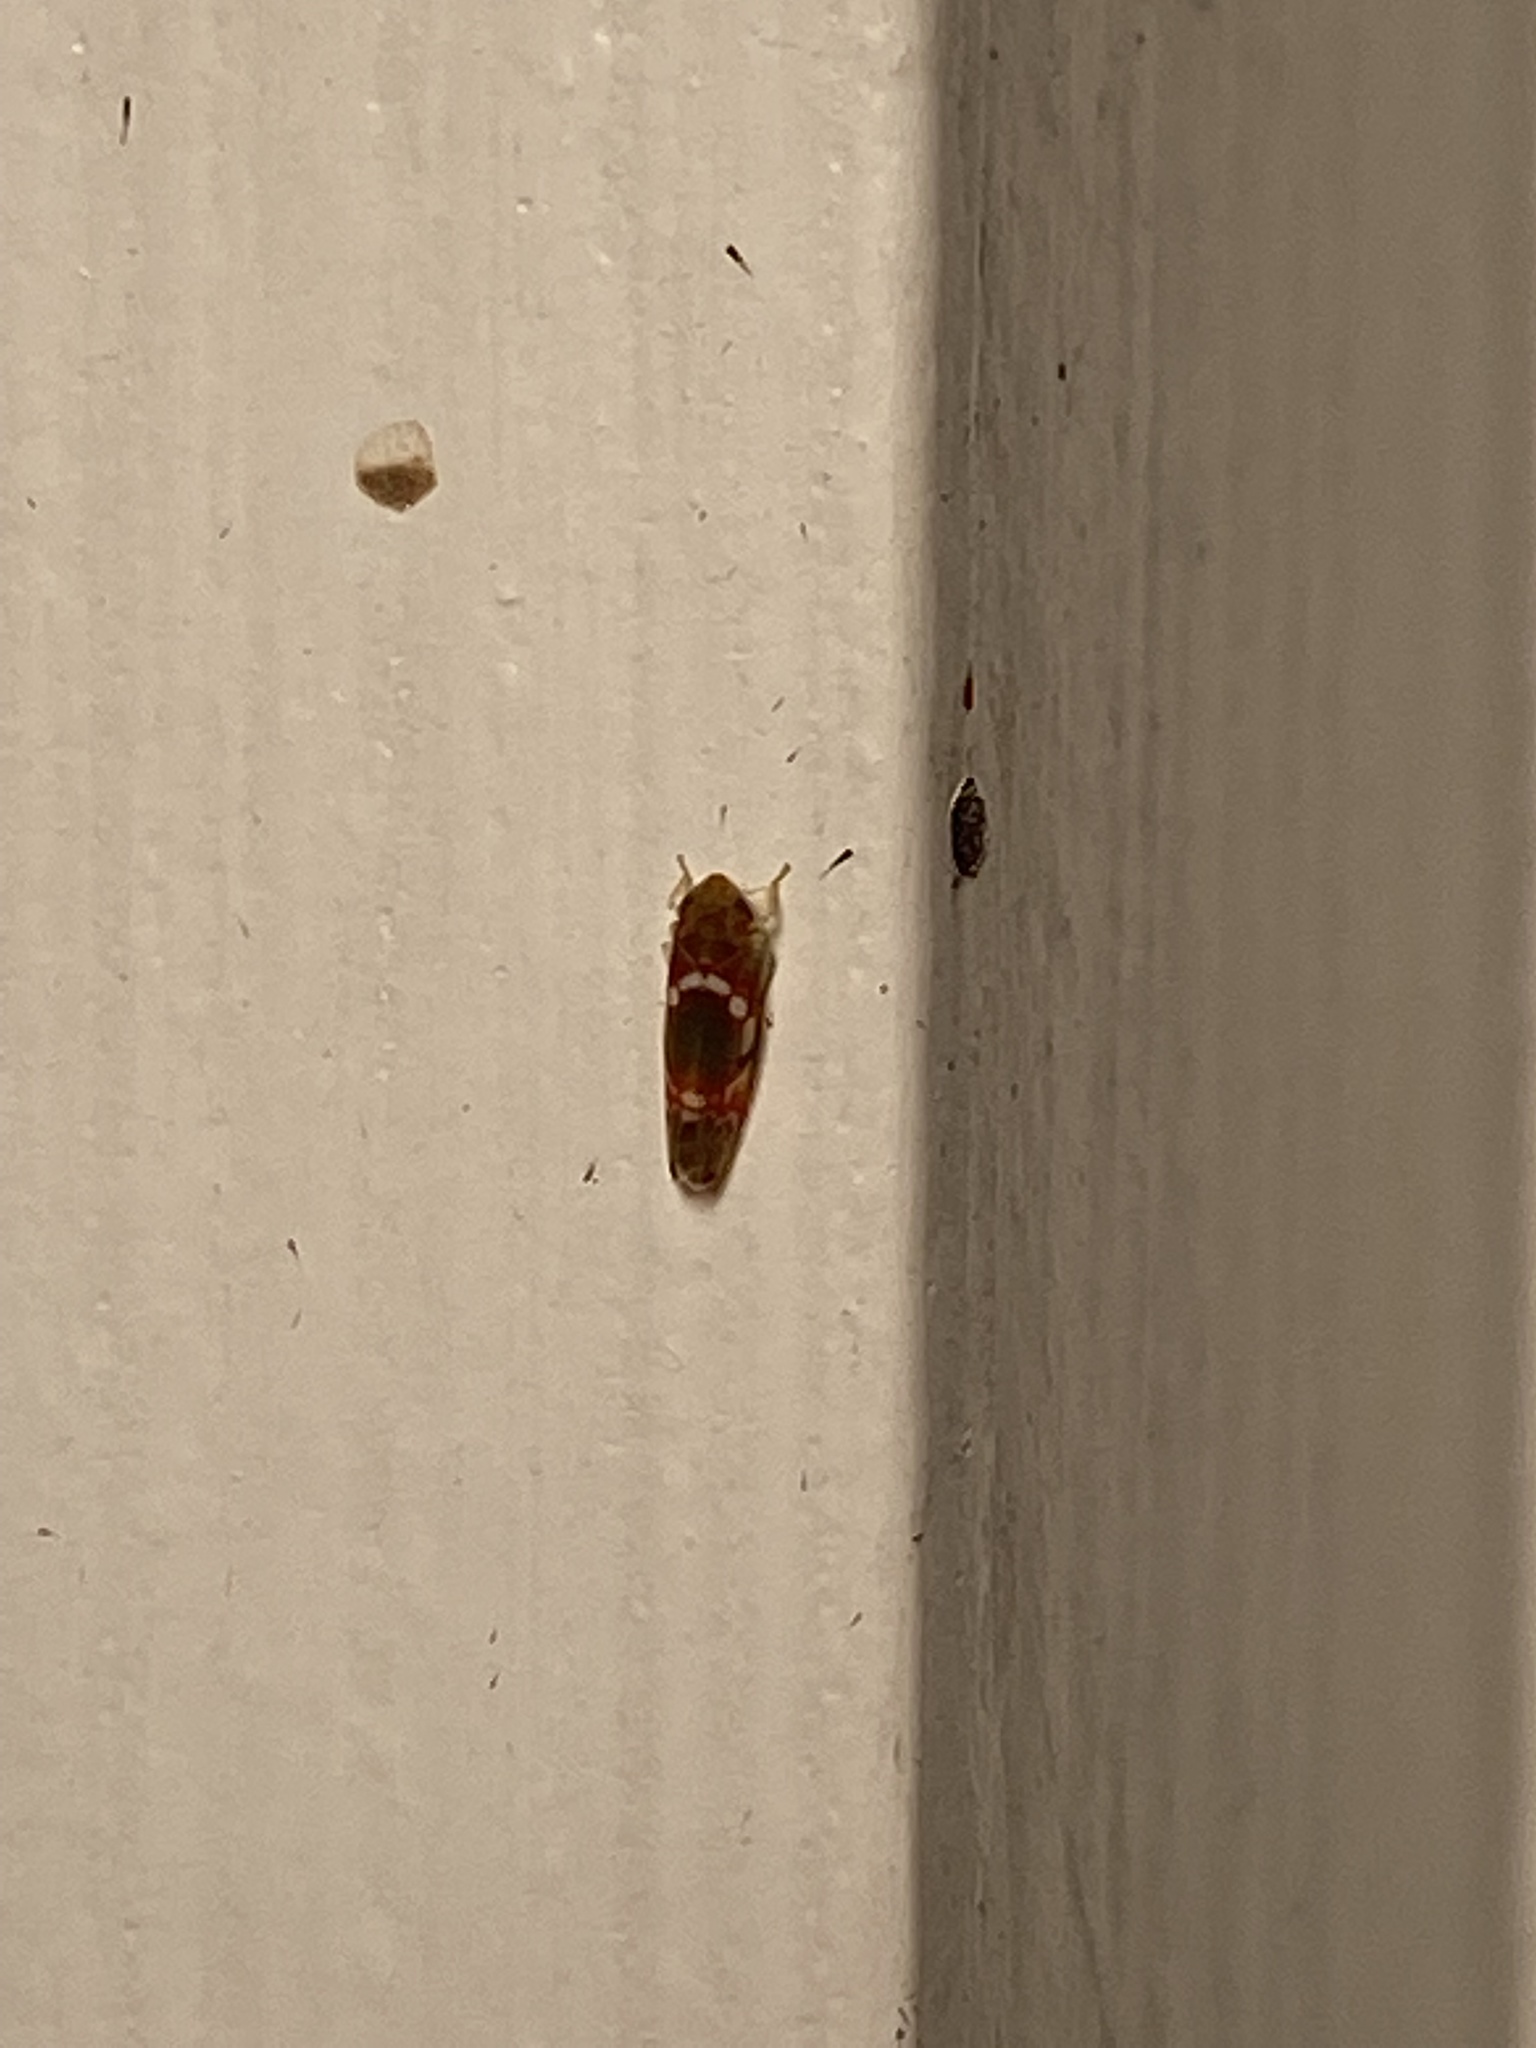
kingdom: Animalia
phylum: Arthropoda
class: Insecta
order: Hemiptera
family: Cicadellidae
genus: Erythroneura
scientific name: Erythroneura vitis
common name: Grapevine leafhopper
